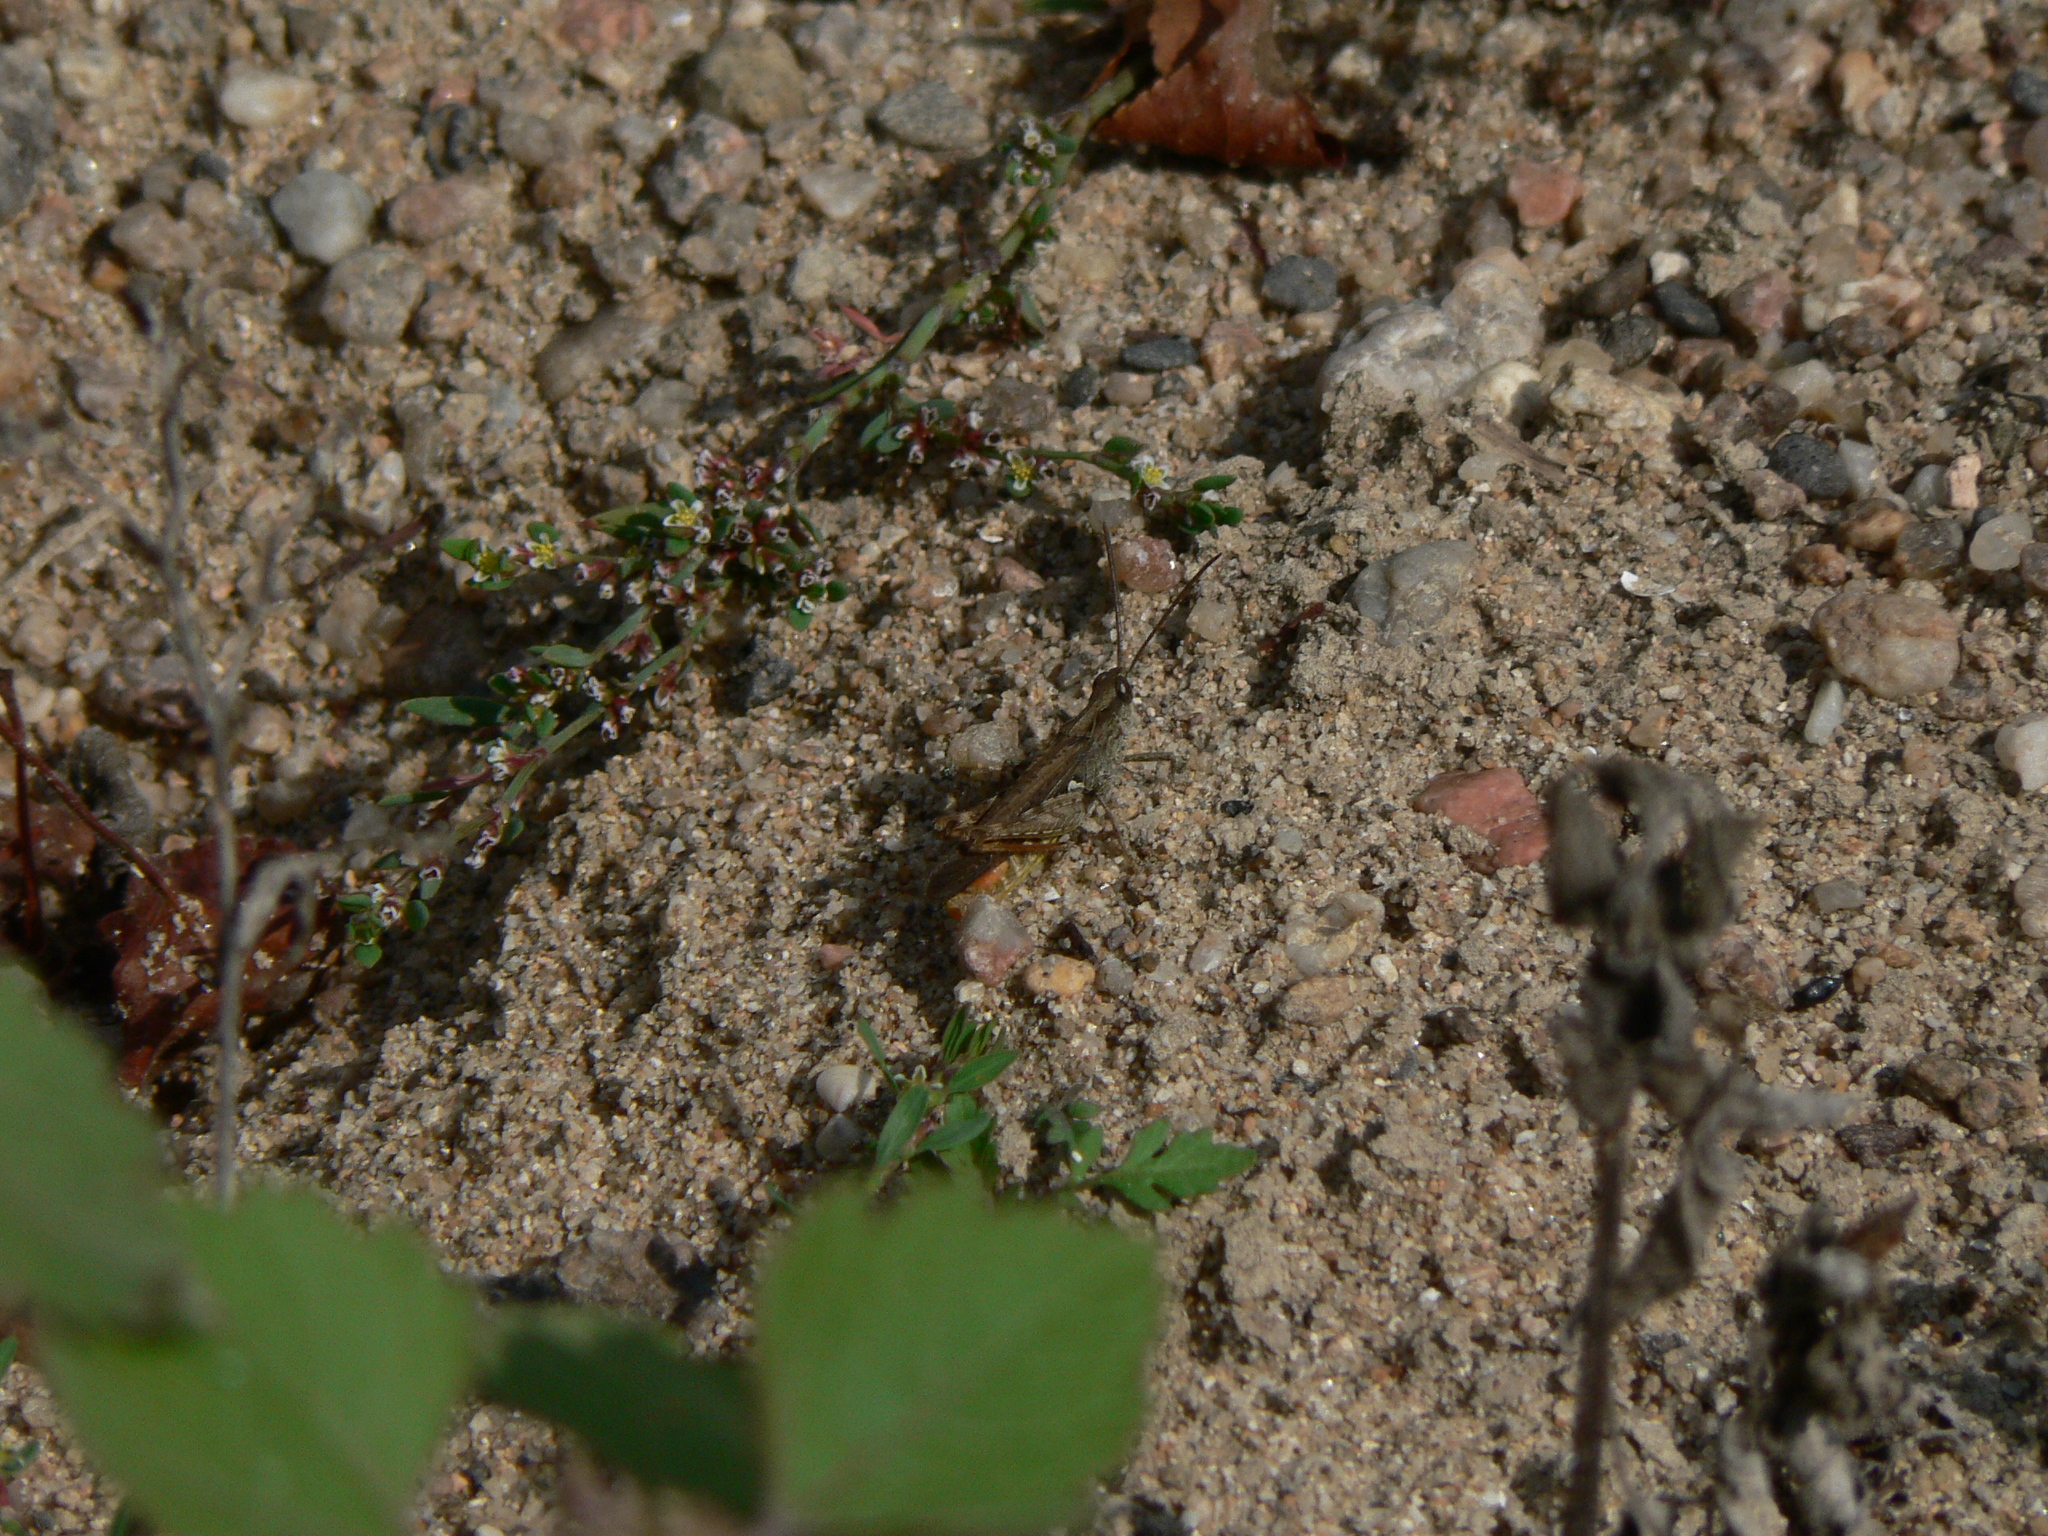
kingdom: Animalia
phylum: Arthropoda
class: Insecta
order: Orthoptera
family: Acrididae
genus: Chorthippus
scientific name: Chorthippus brunneus
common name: Field grasshopper
